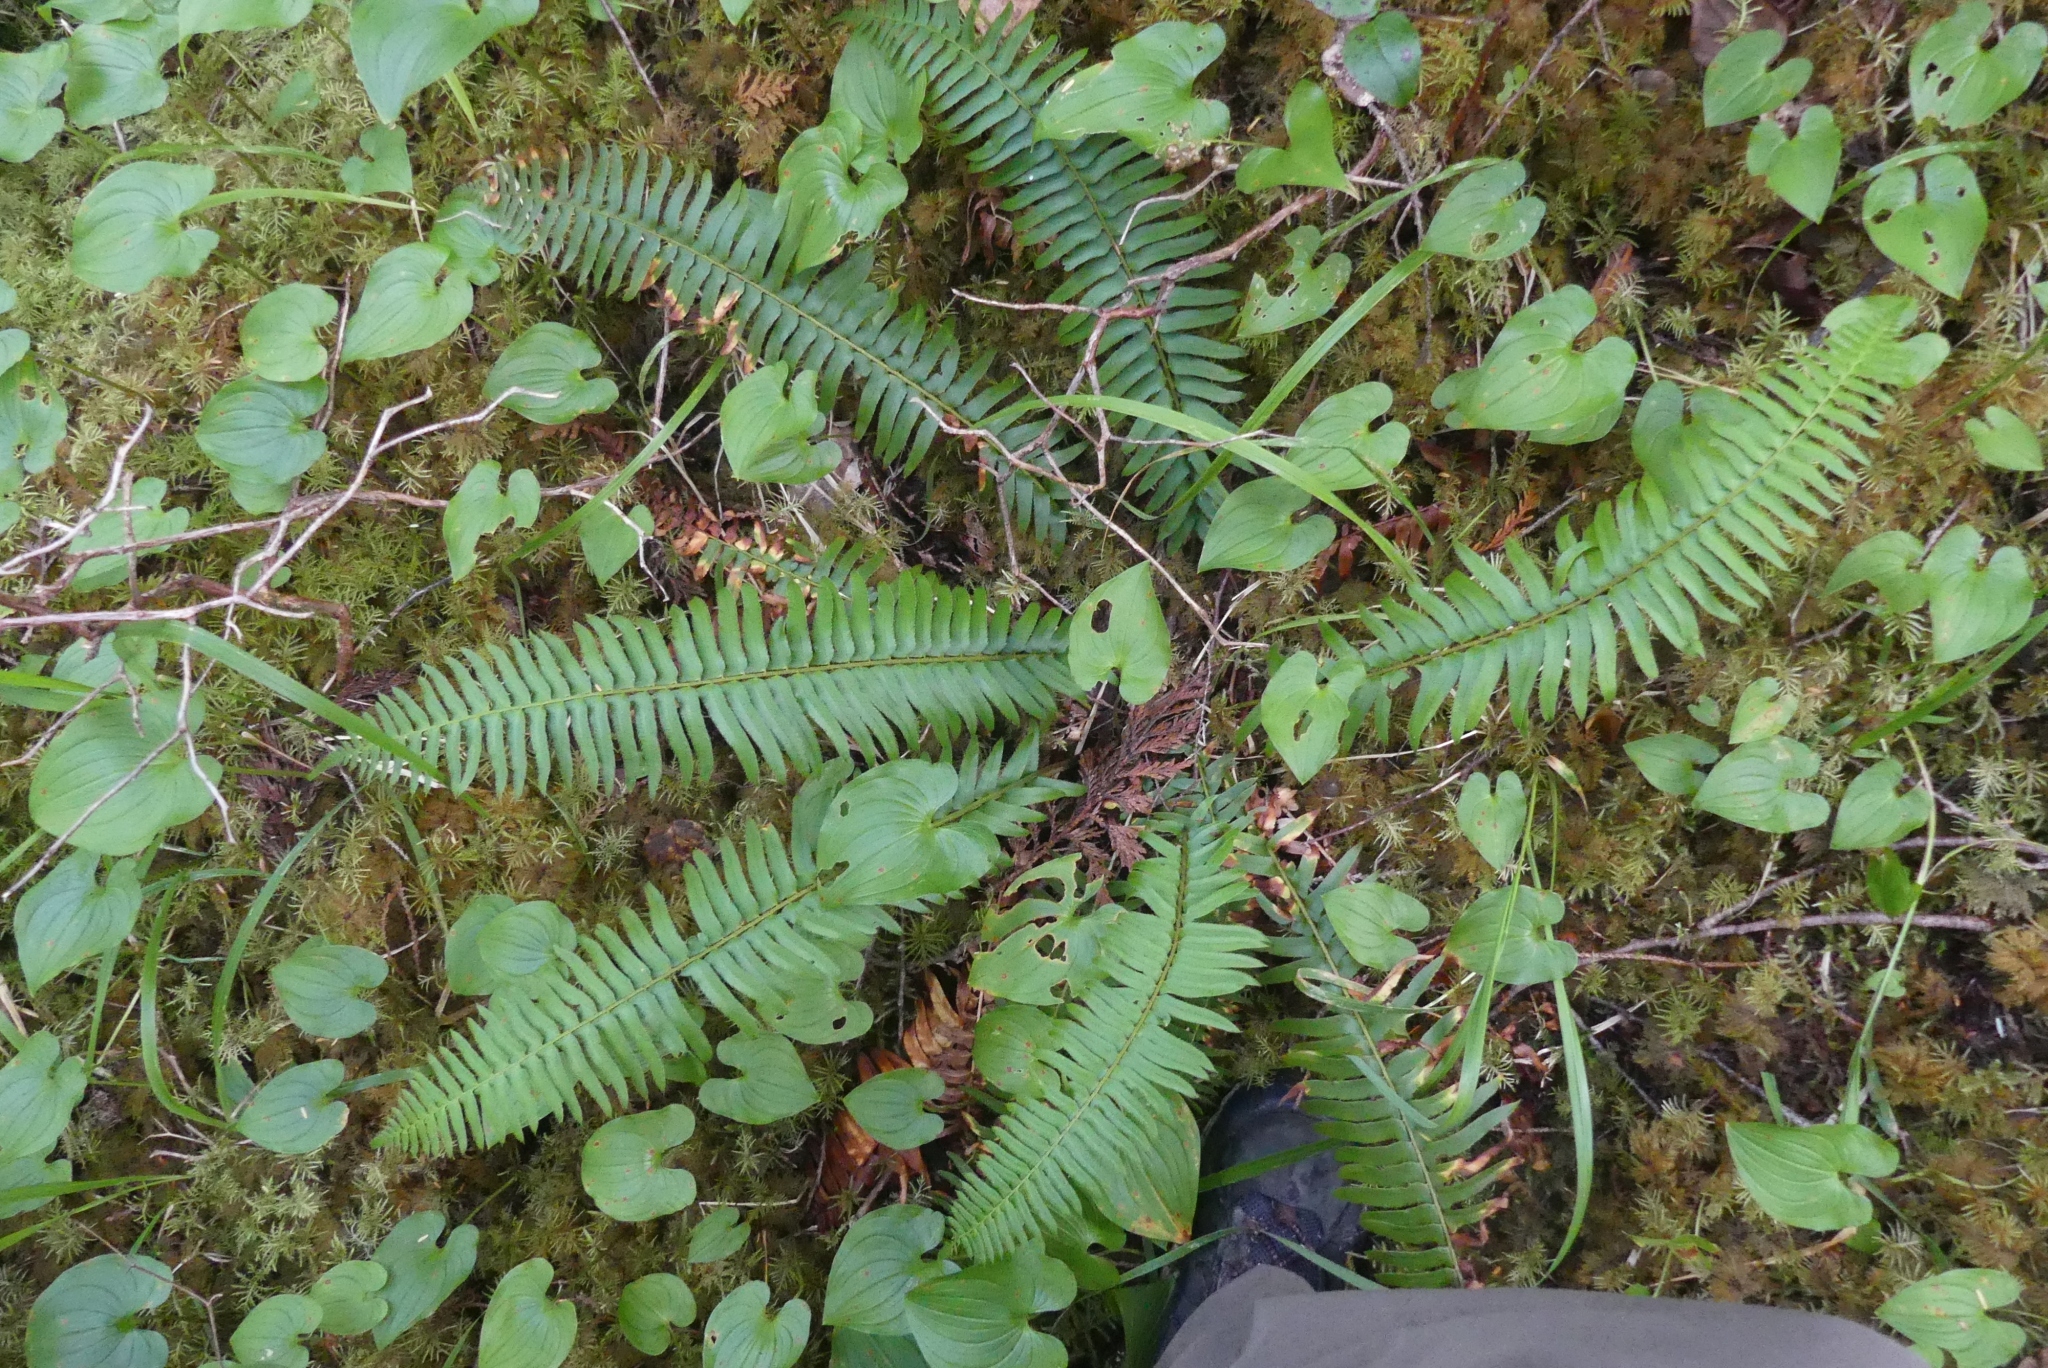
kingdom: Plantae
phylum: Tracheophyta
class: Polypodiopsida
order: Polypodiales
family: Dryopteridaceae
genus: Polystichum
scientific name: Polystichum munitum
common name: Western sword-fern
